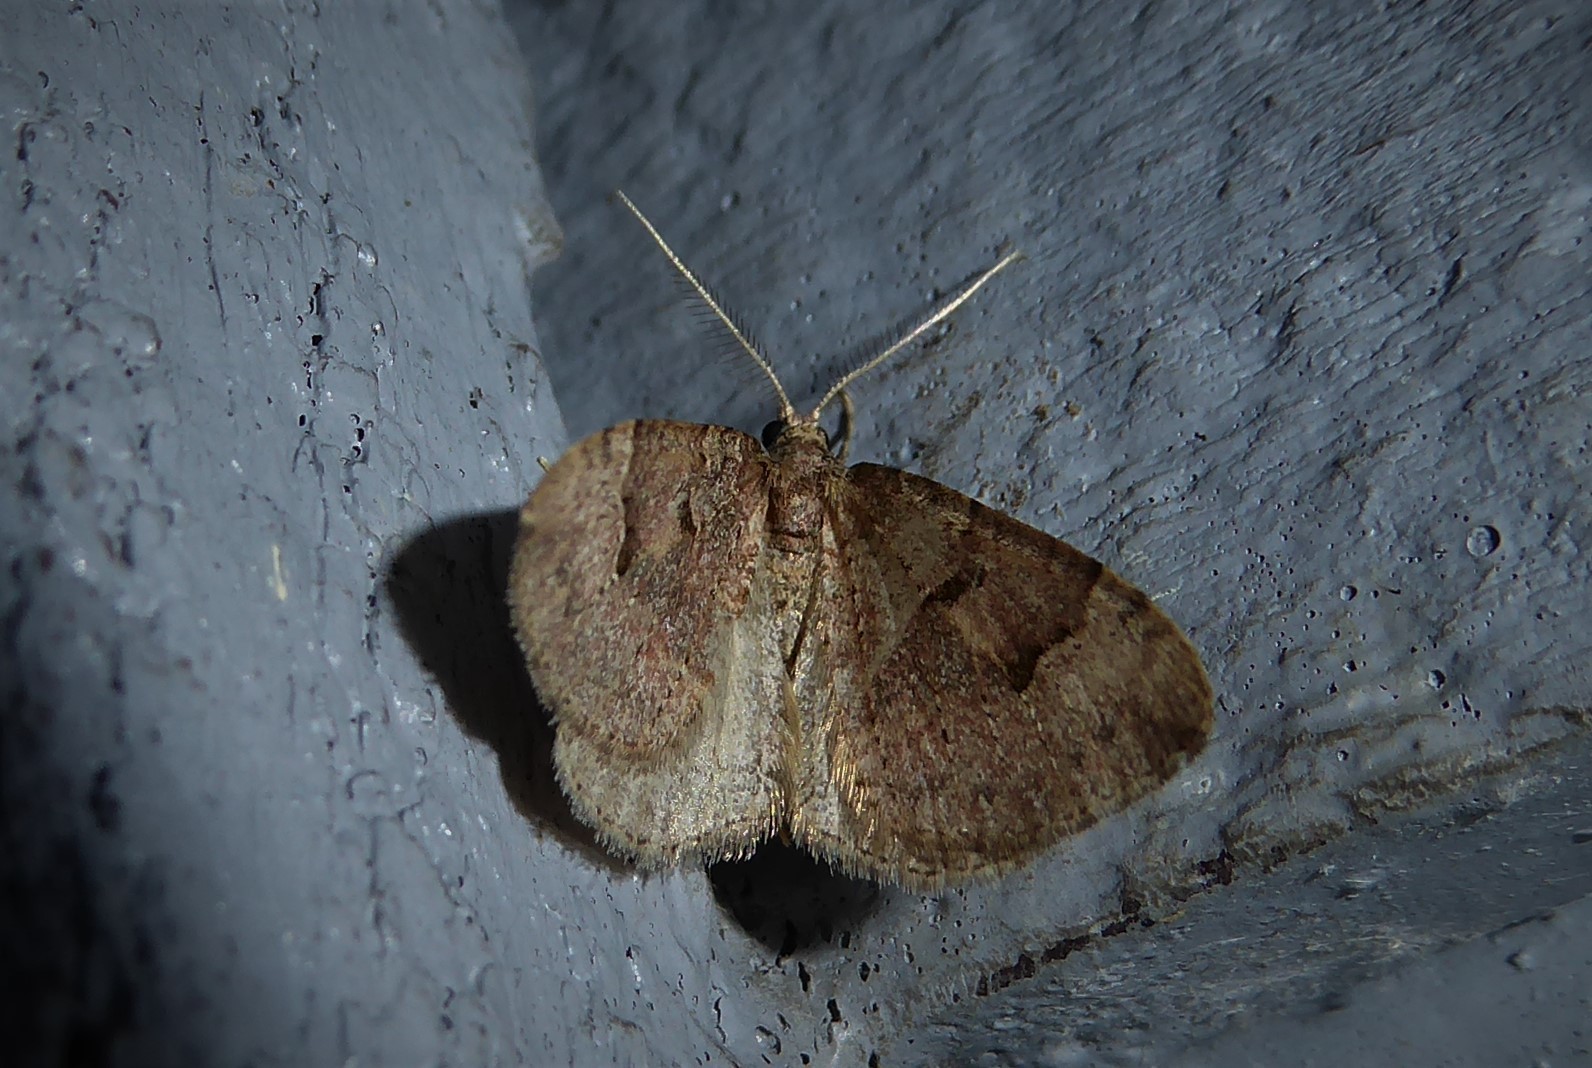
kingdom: Animalia
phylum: Arthropoda
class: Insecta
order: Lepidoptera
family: Geometridae
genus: Epyaxa
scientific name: Epyaxa rosearia
